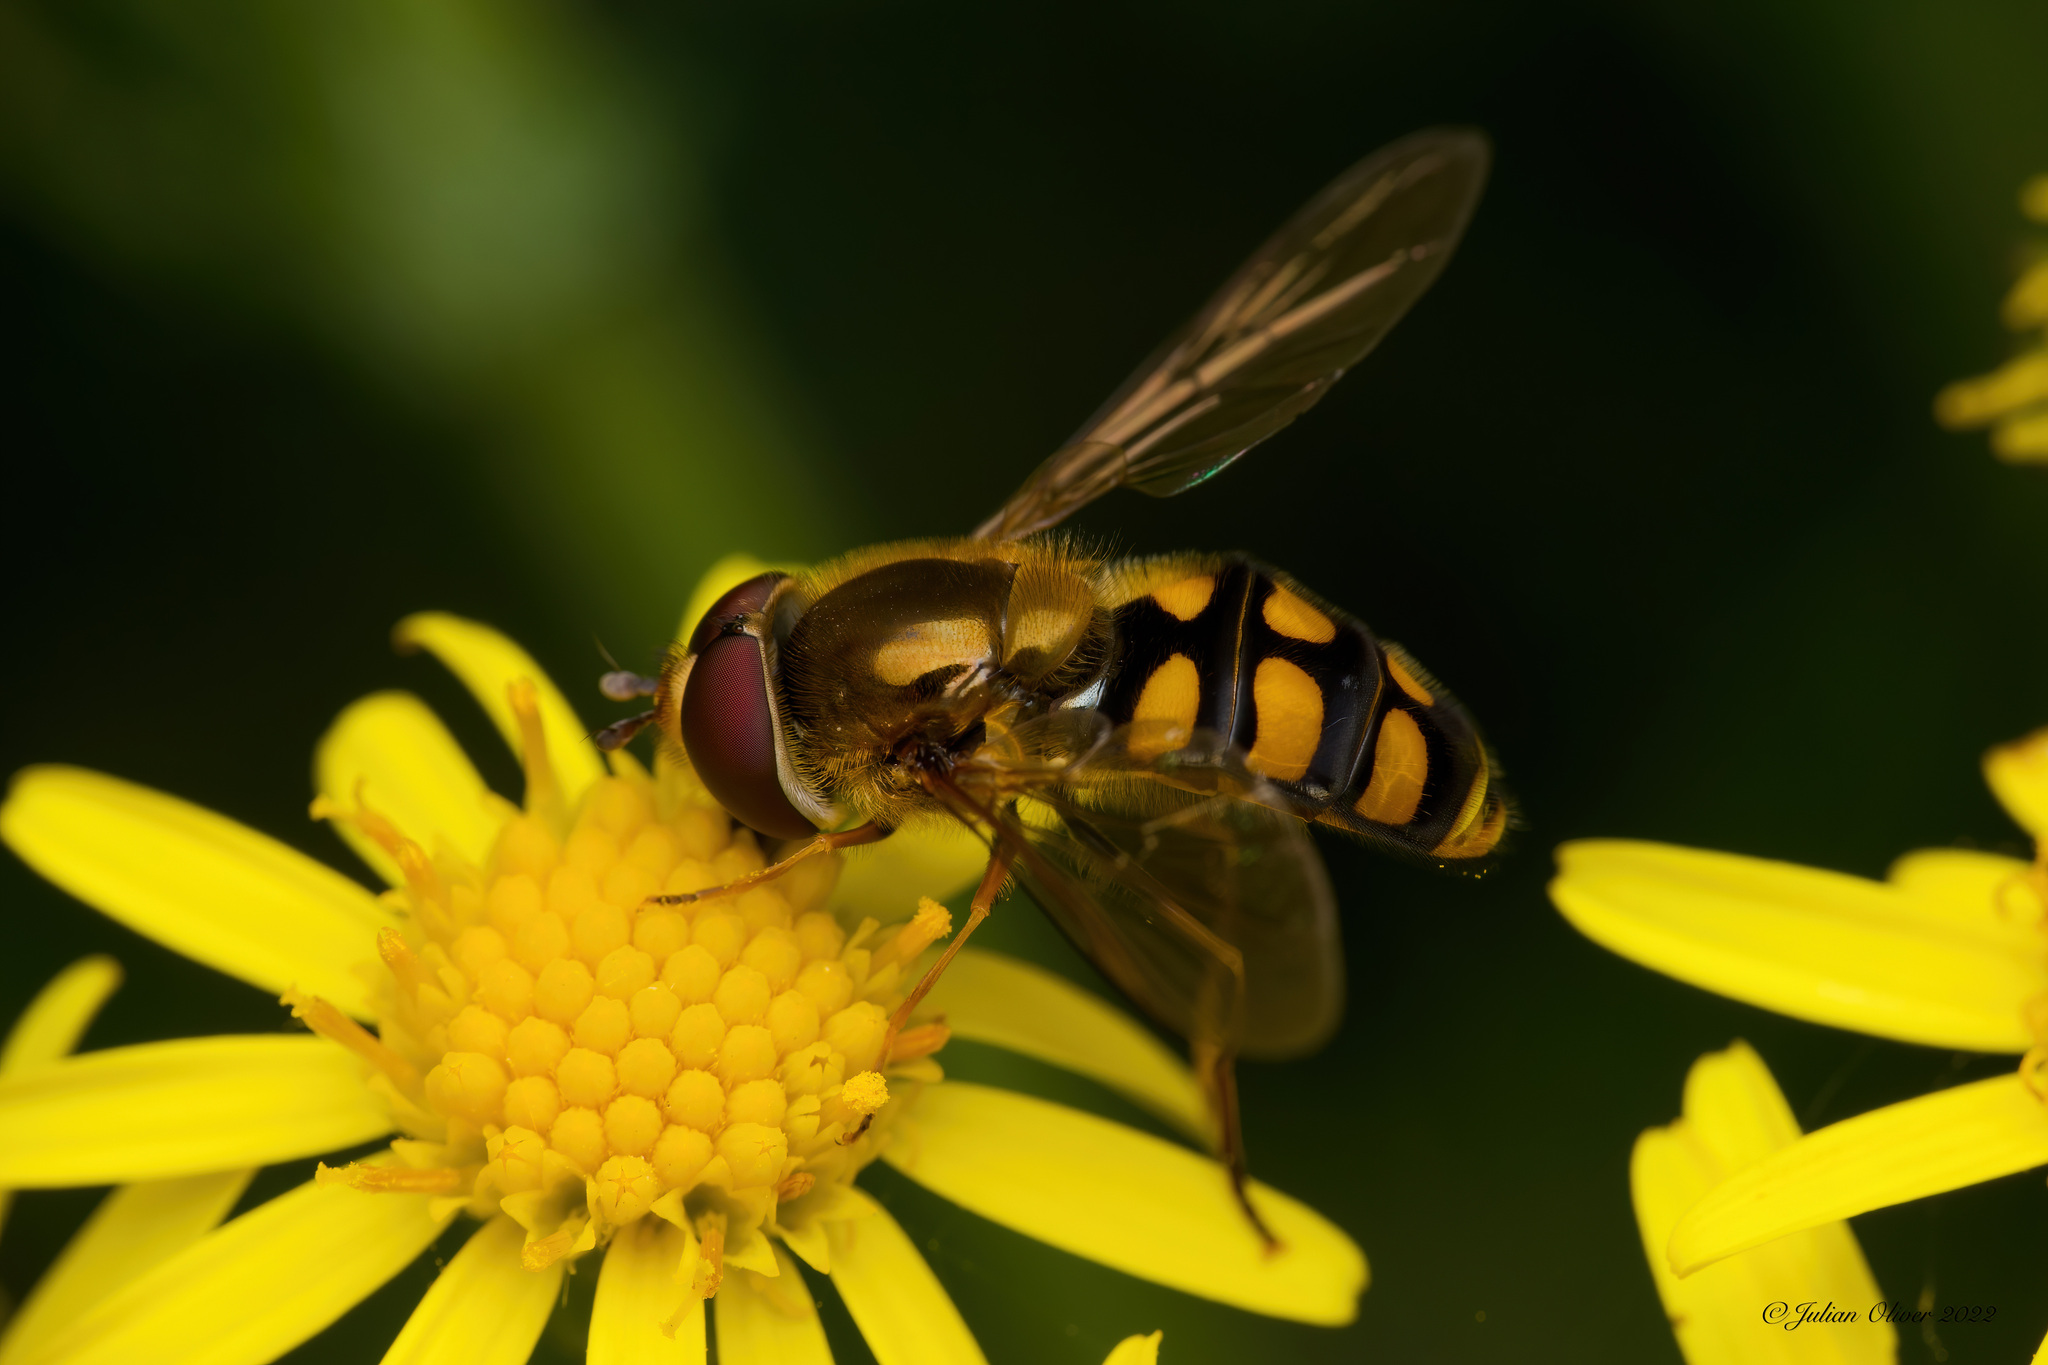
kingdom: Animalia
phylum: Arthropoda
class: Insecta
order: Diptera
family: Syrphidae
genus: Eupeodes
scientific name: Eupeodes
